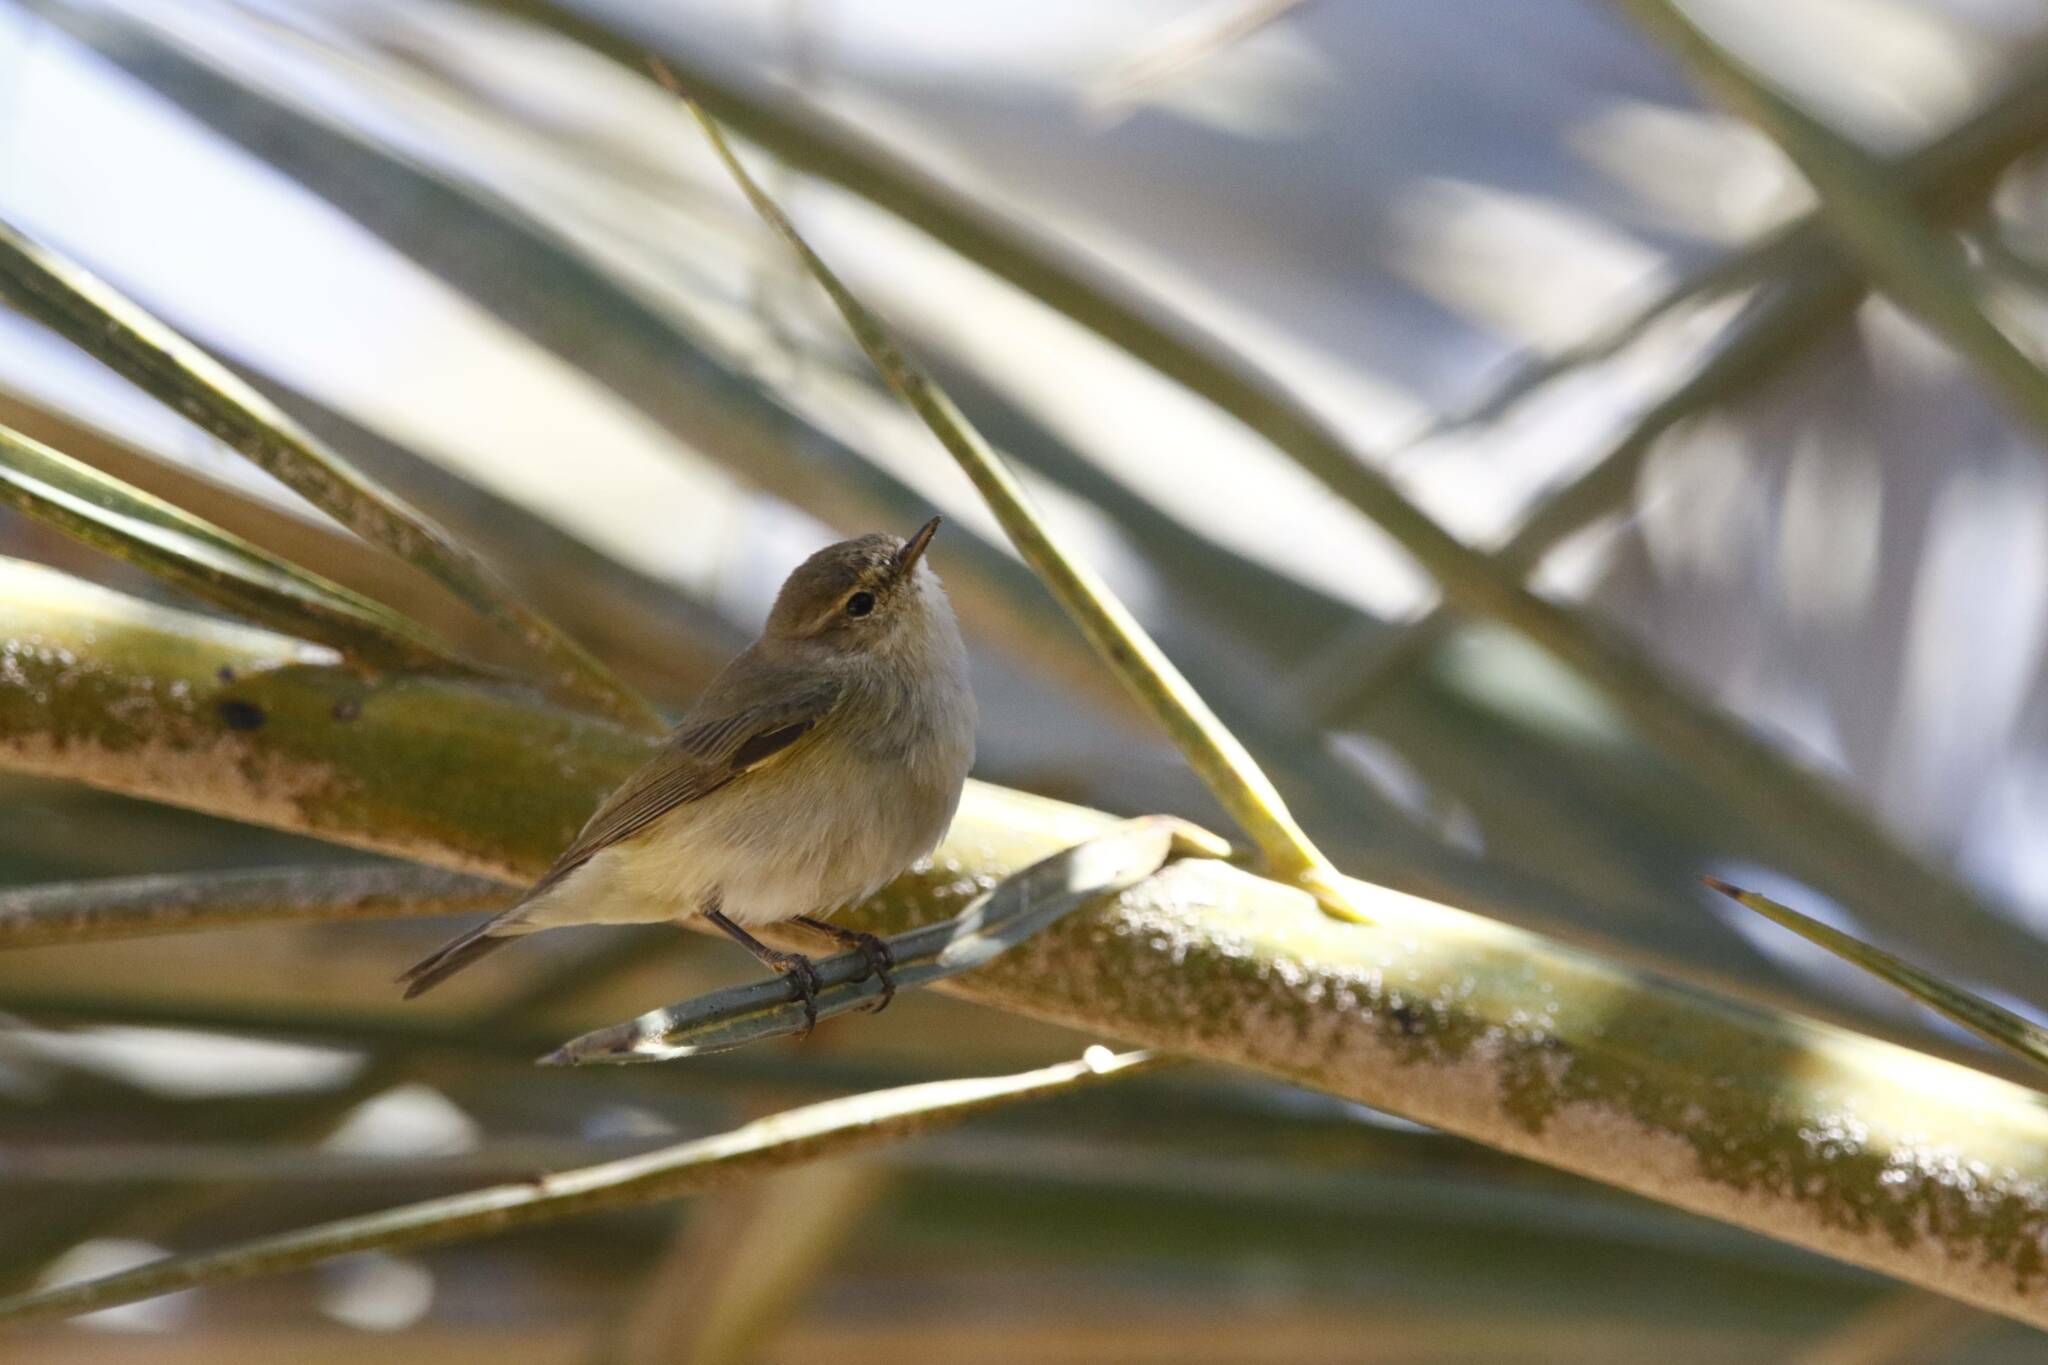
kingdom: Animalia
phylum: Chordata
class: Aves
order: Passeriformes
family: Phylloscopidae
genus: Phylloscopus
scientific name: Phylloscopus collybita
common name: Common chiffchaff
